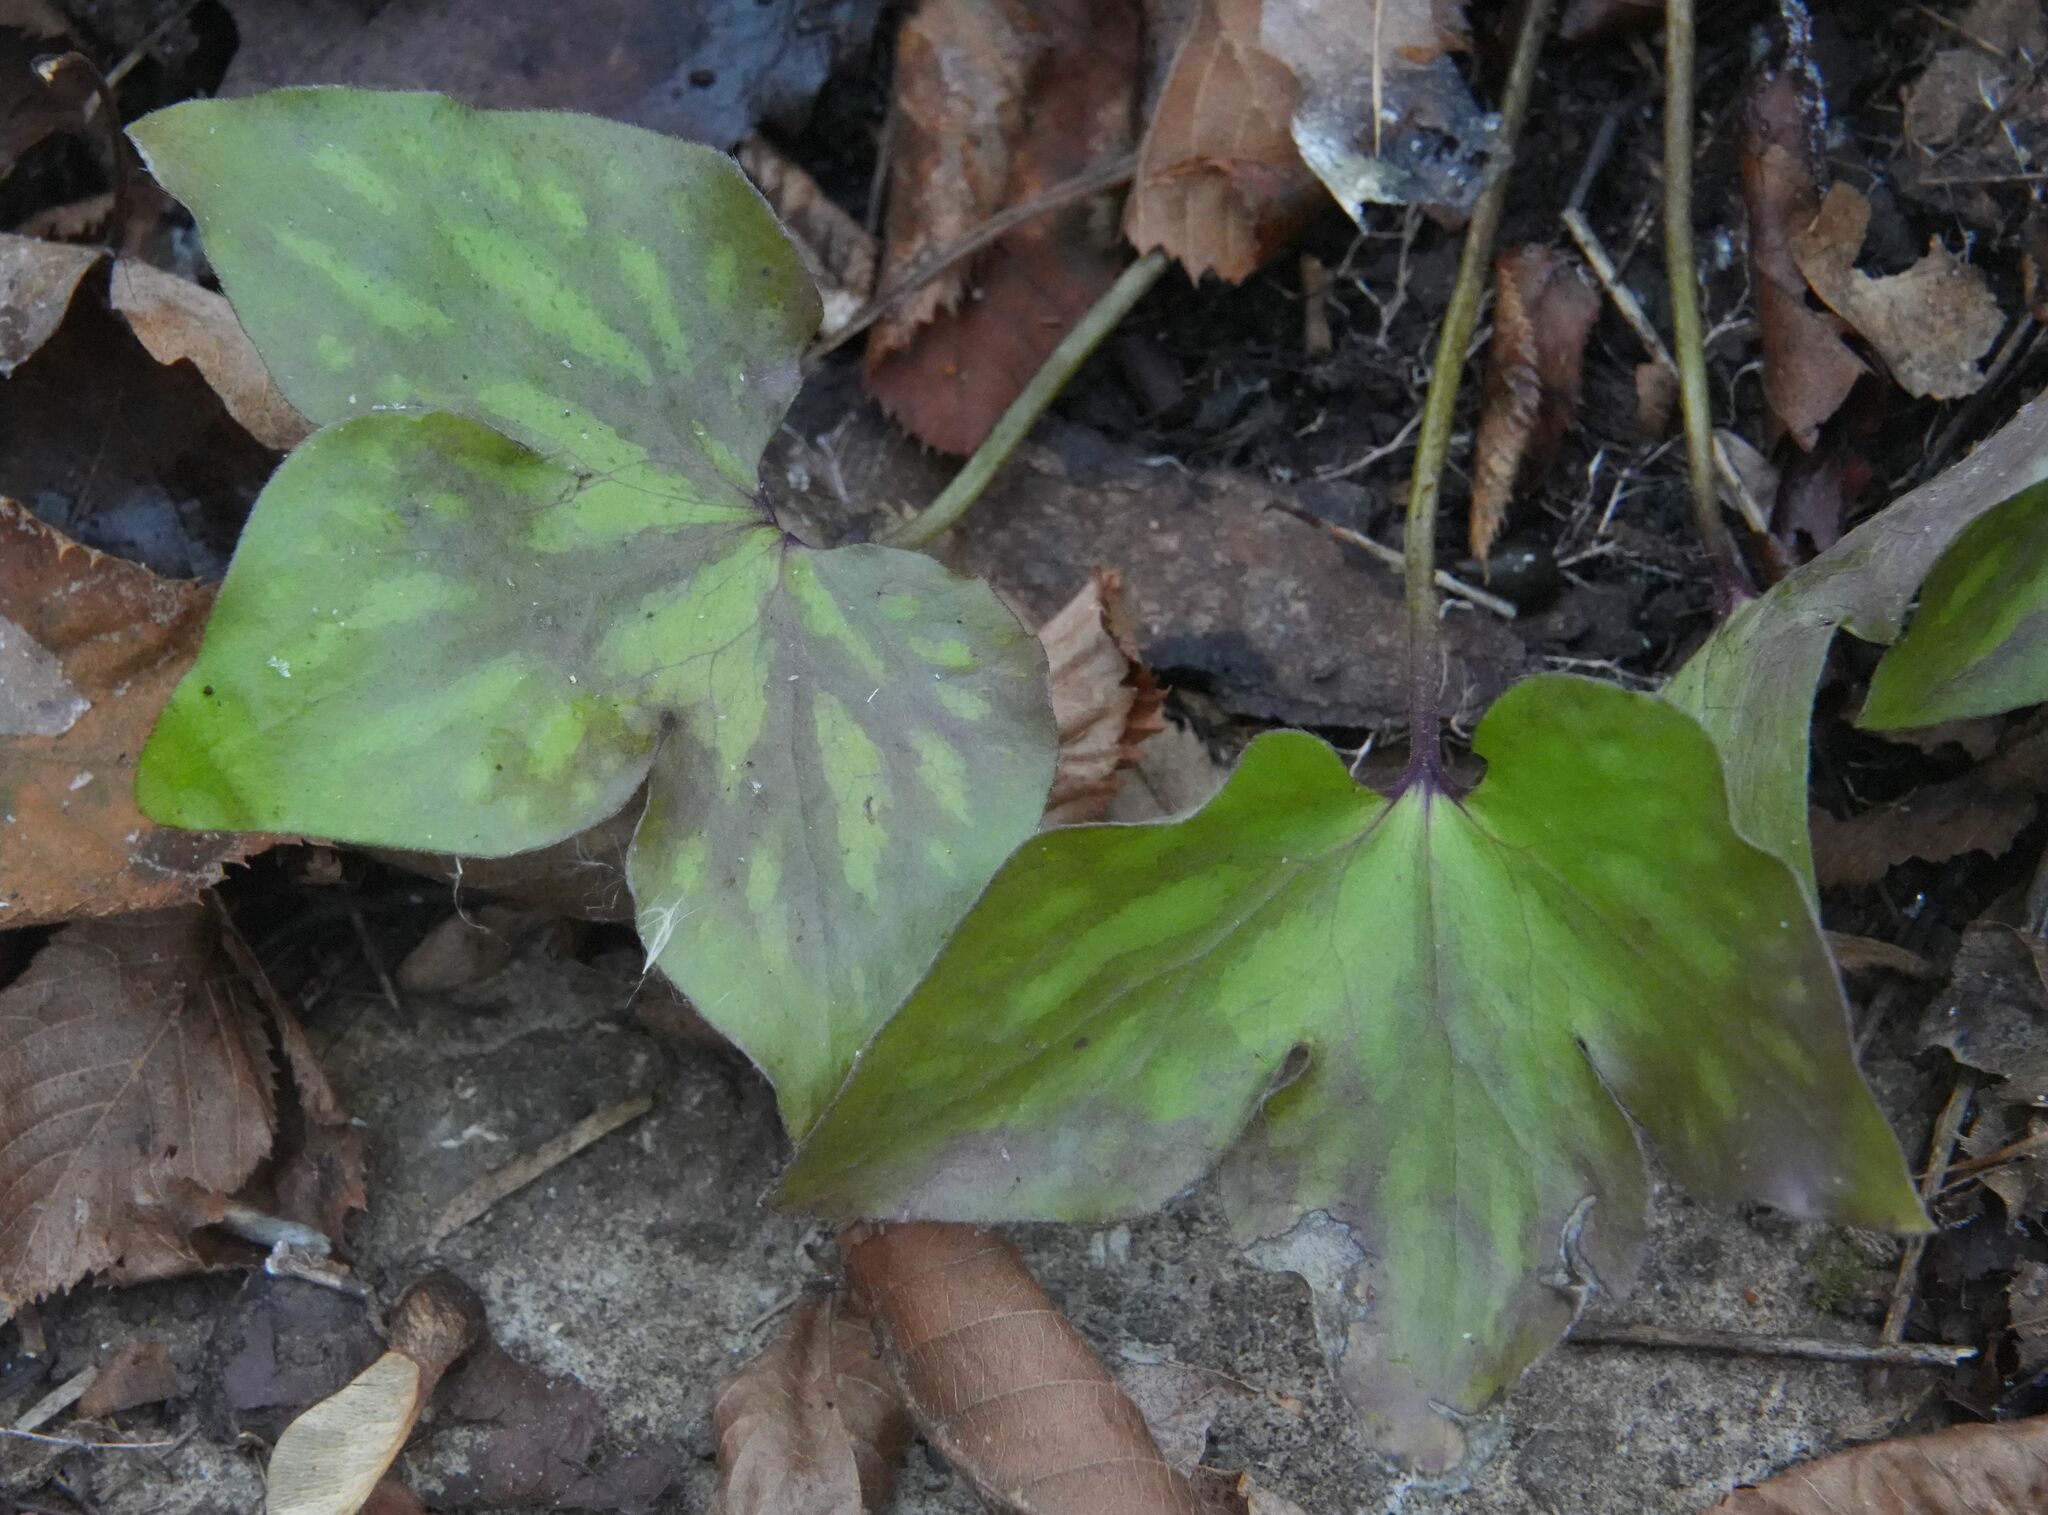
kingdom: Plantae
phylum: Tracheophyta
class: Magnoliopsida
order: Ranunculales
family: Ranunculaceae
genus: Hepatica
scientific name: Hepatica acutiloba
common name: Sharp-lobed hepatica
